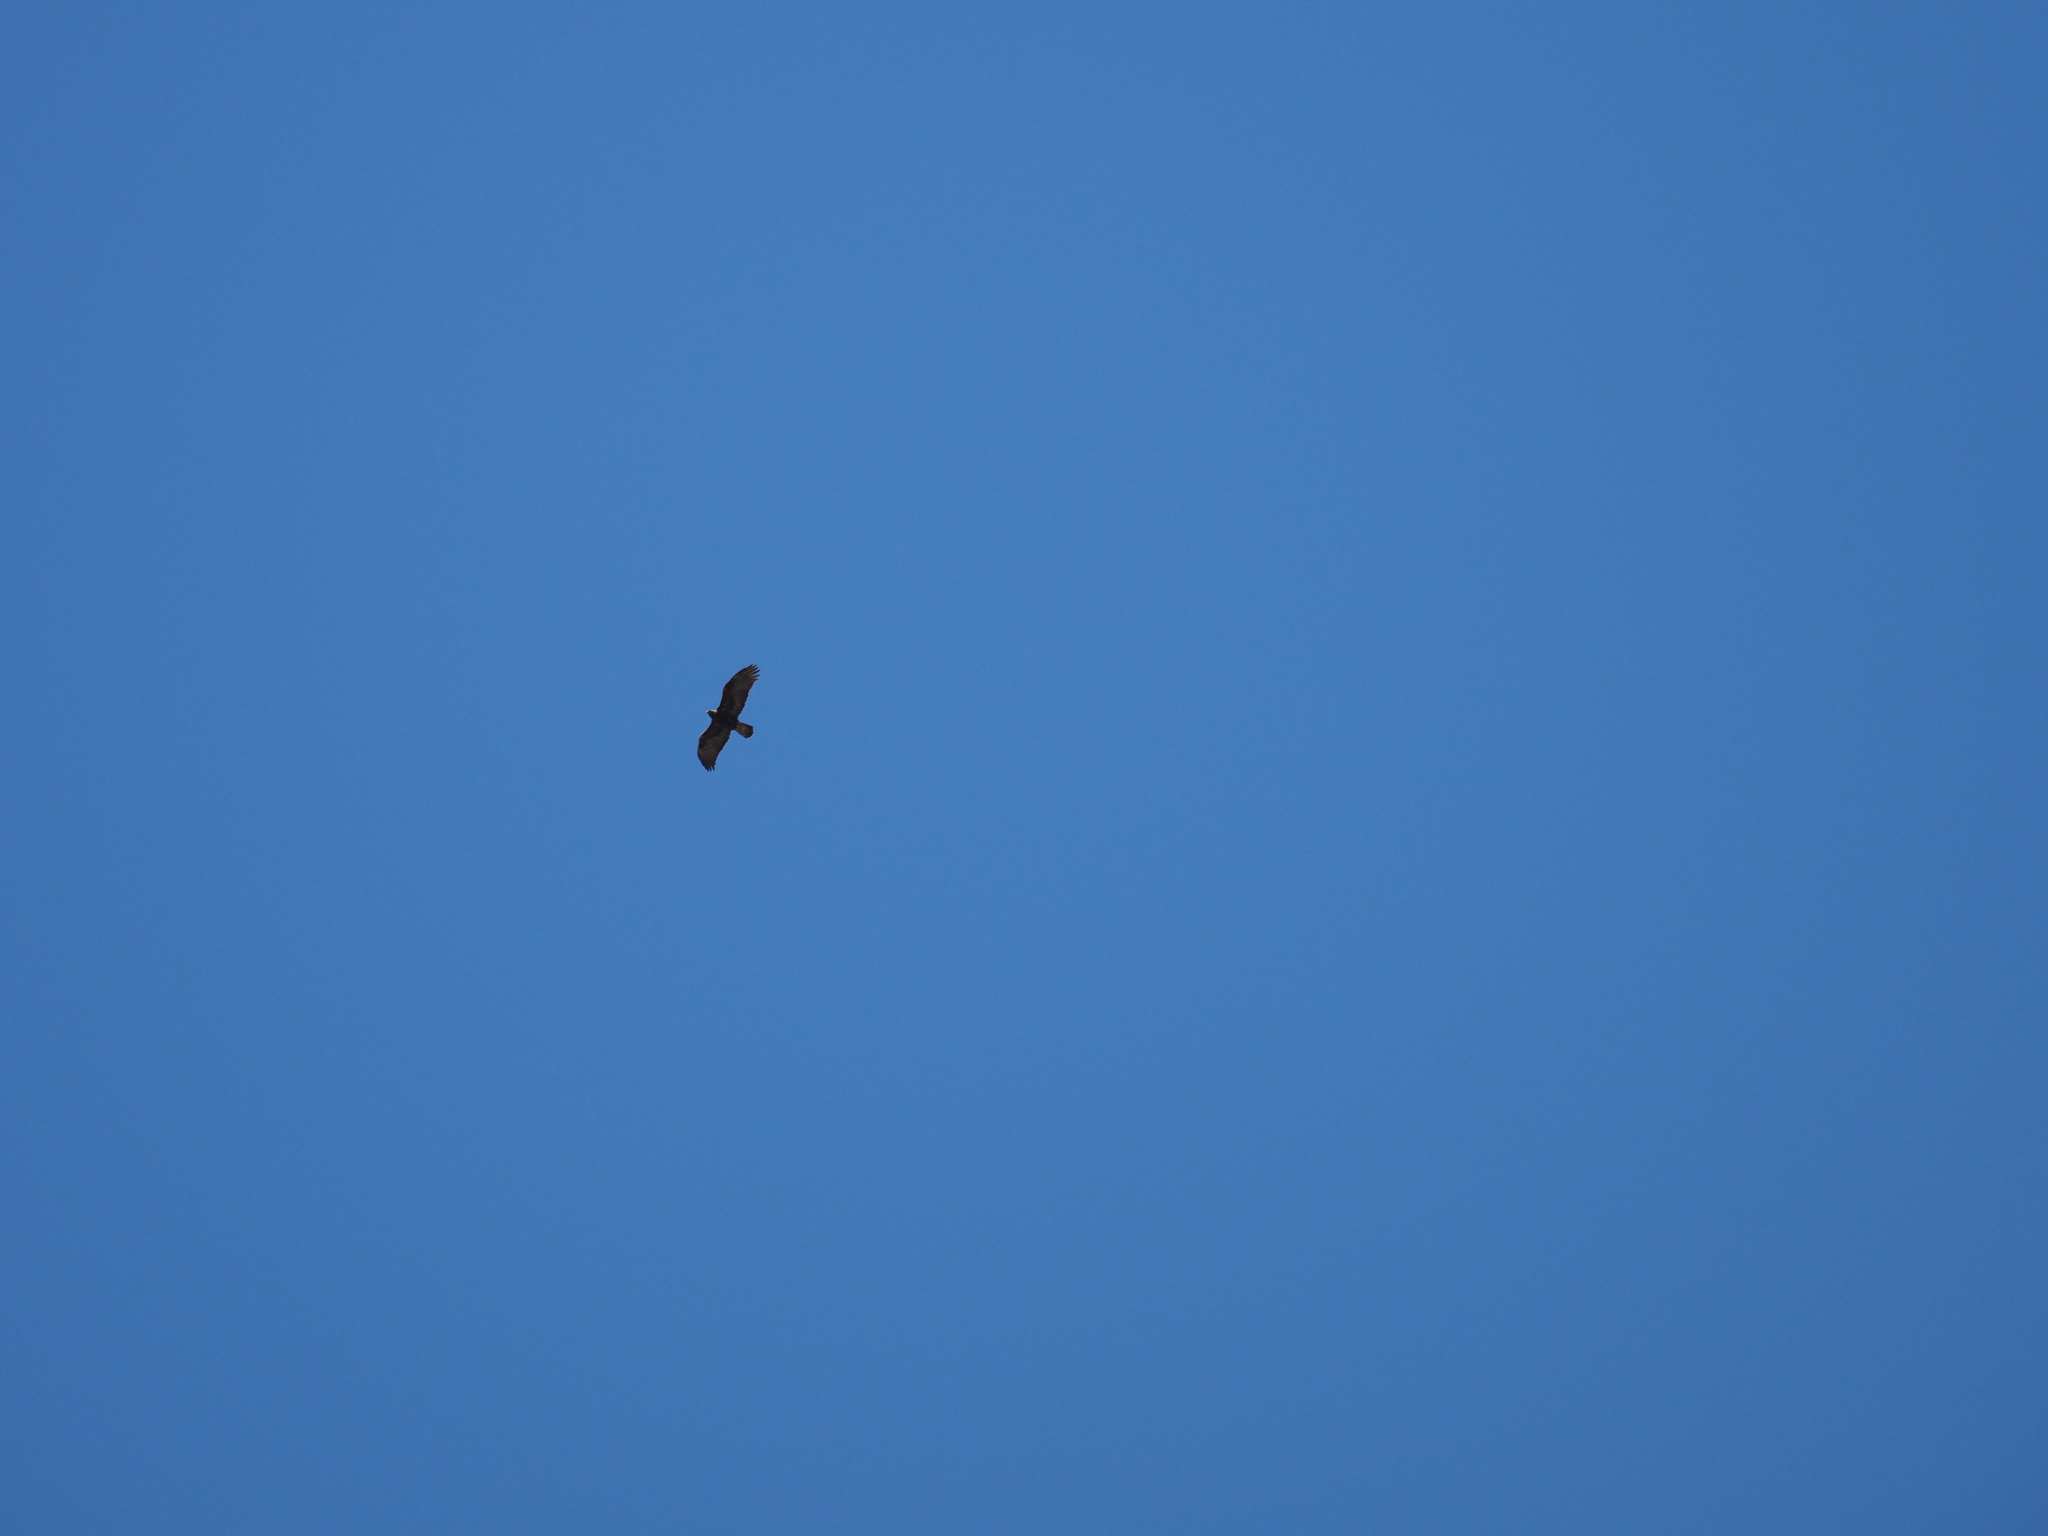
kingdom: Animalia
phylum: Chordata
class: Aves
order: Accipitriformes
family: Accipitridae
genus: Aquila
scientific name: Aquila chrysaetos
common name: Golden eagle
